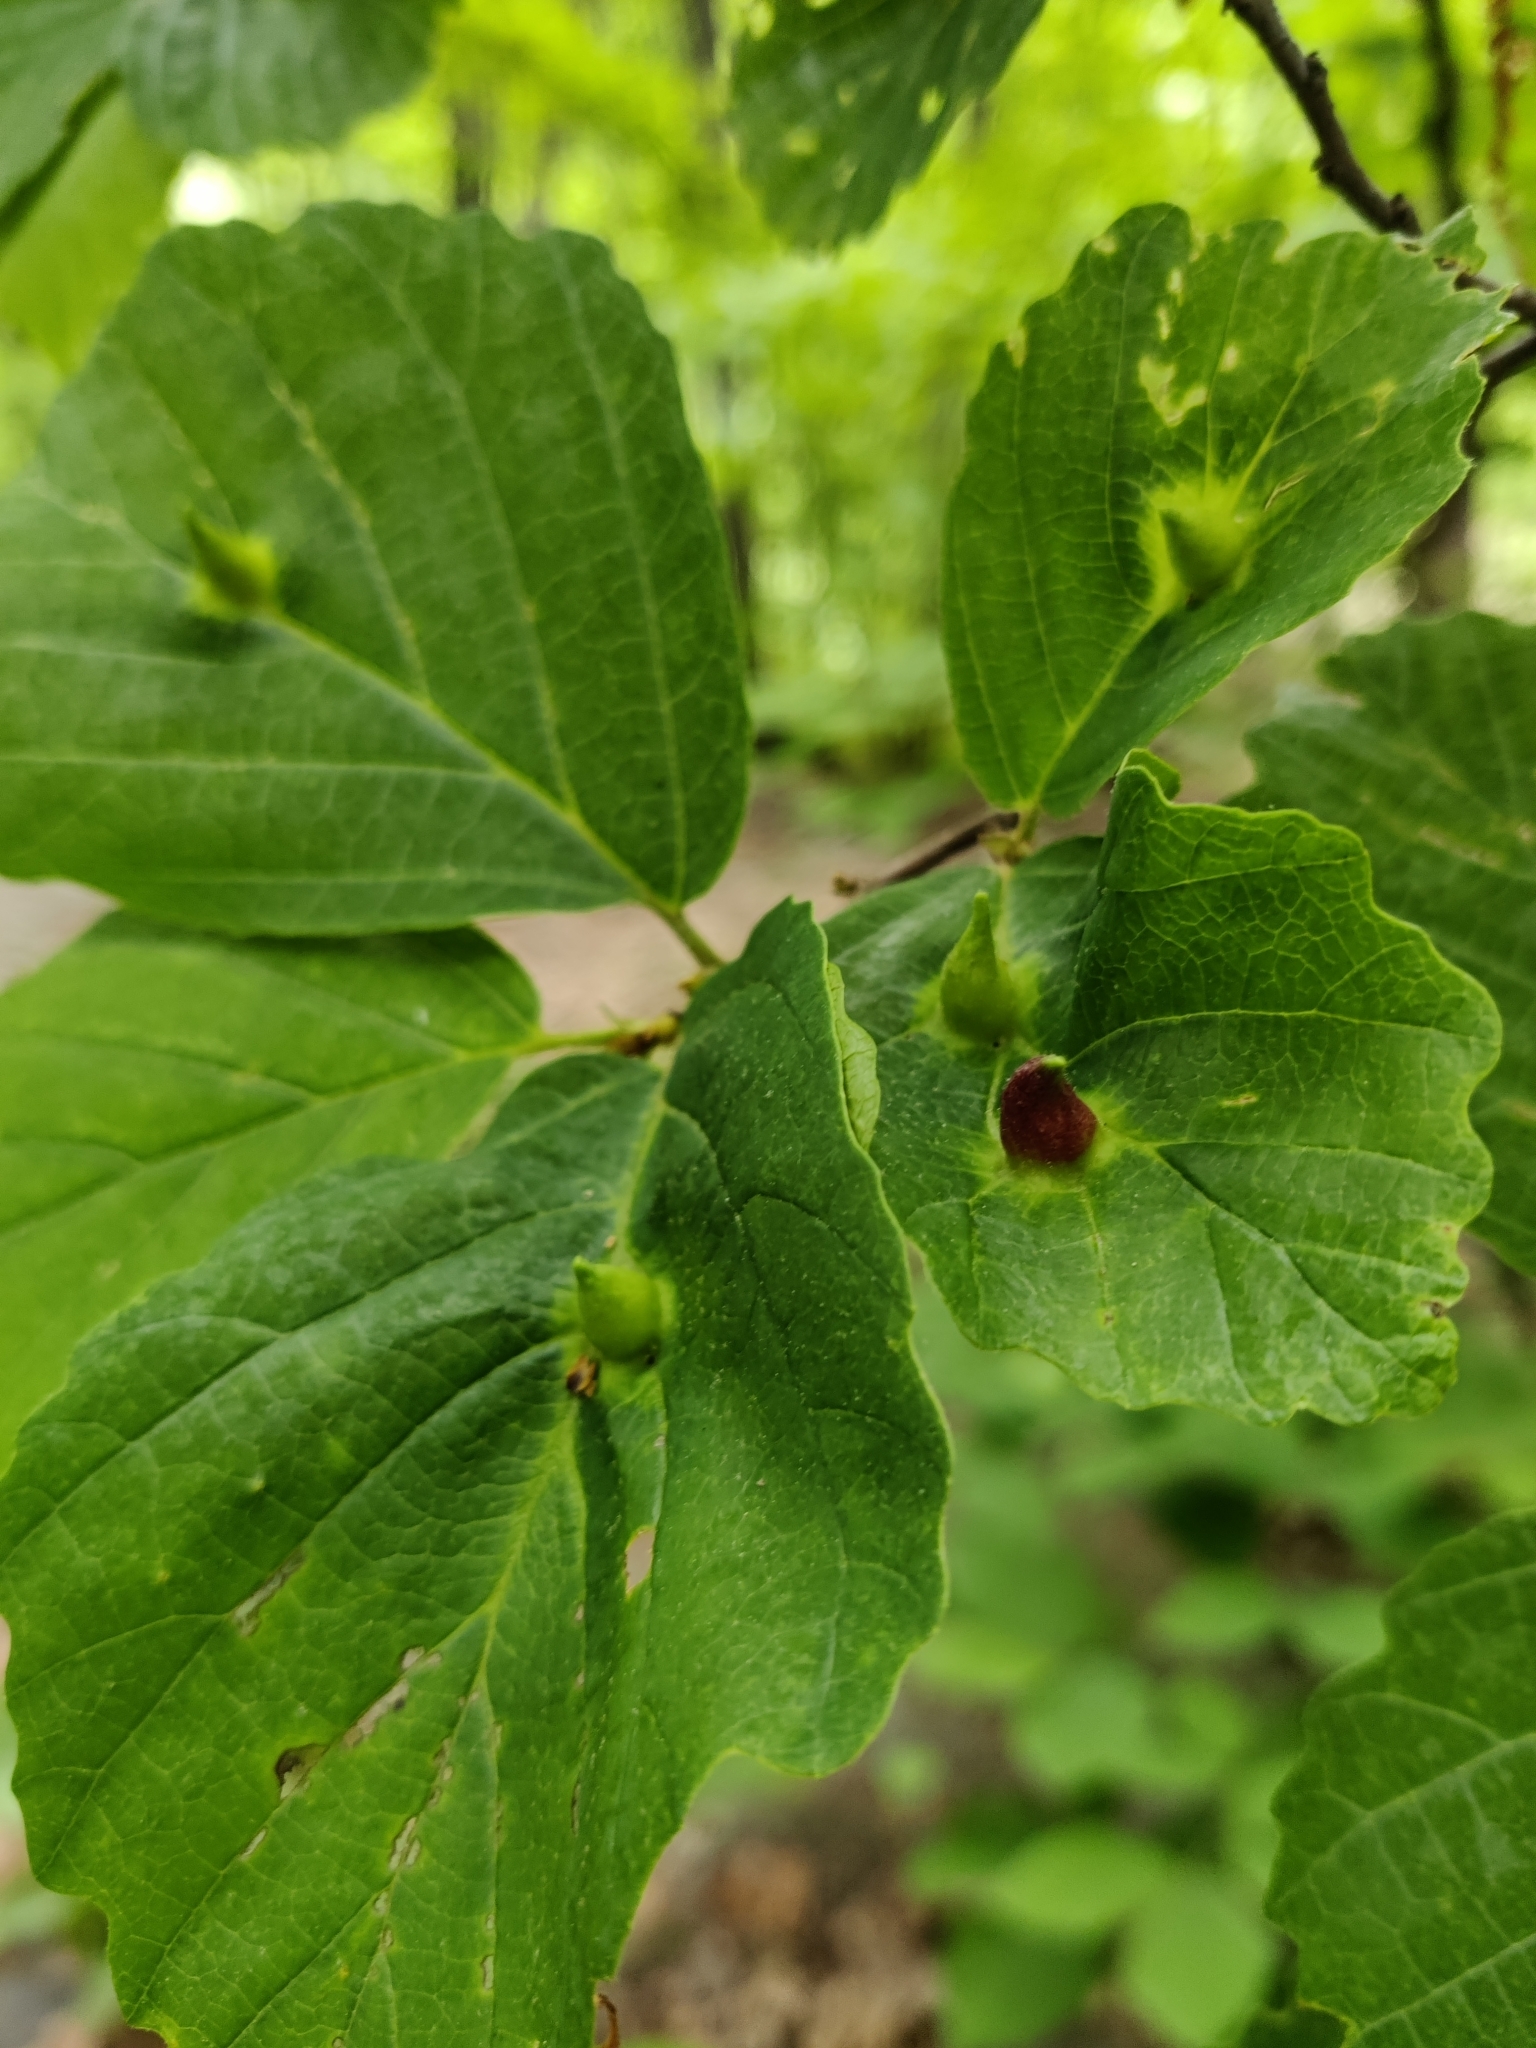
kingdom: Animalia
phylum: Arthropoda
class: Insecta
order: Hemiptera
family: Aphididae
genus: Hormaphis
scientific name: Hormaphis hamamelidis
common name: Witch-hazel cone gall aphid
